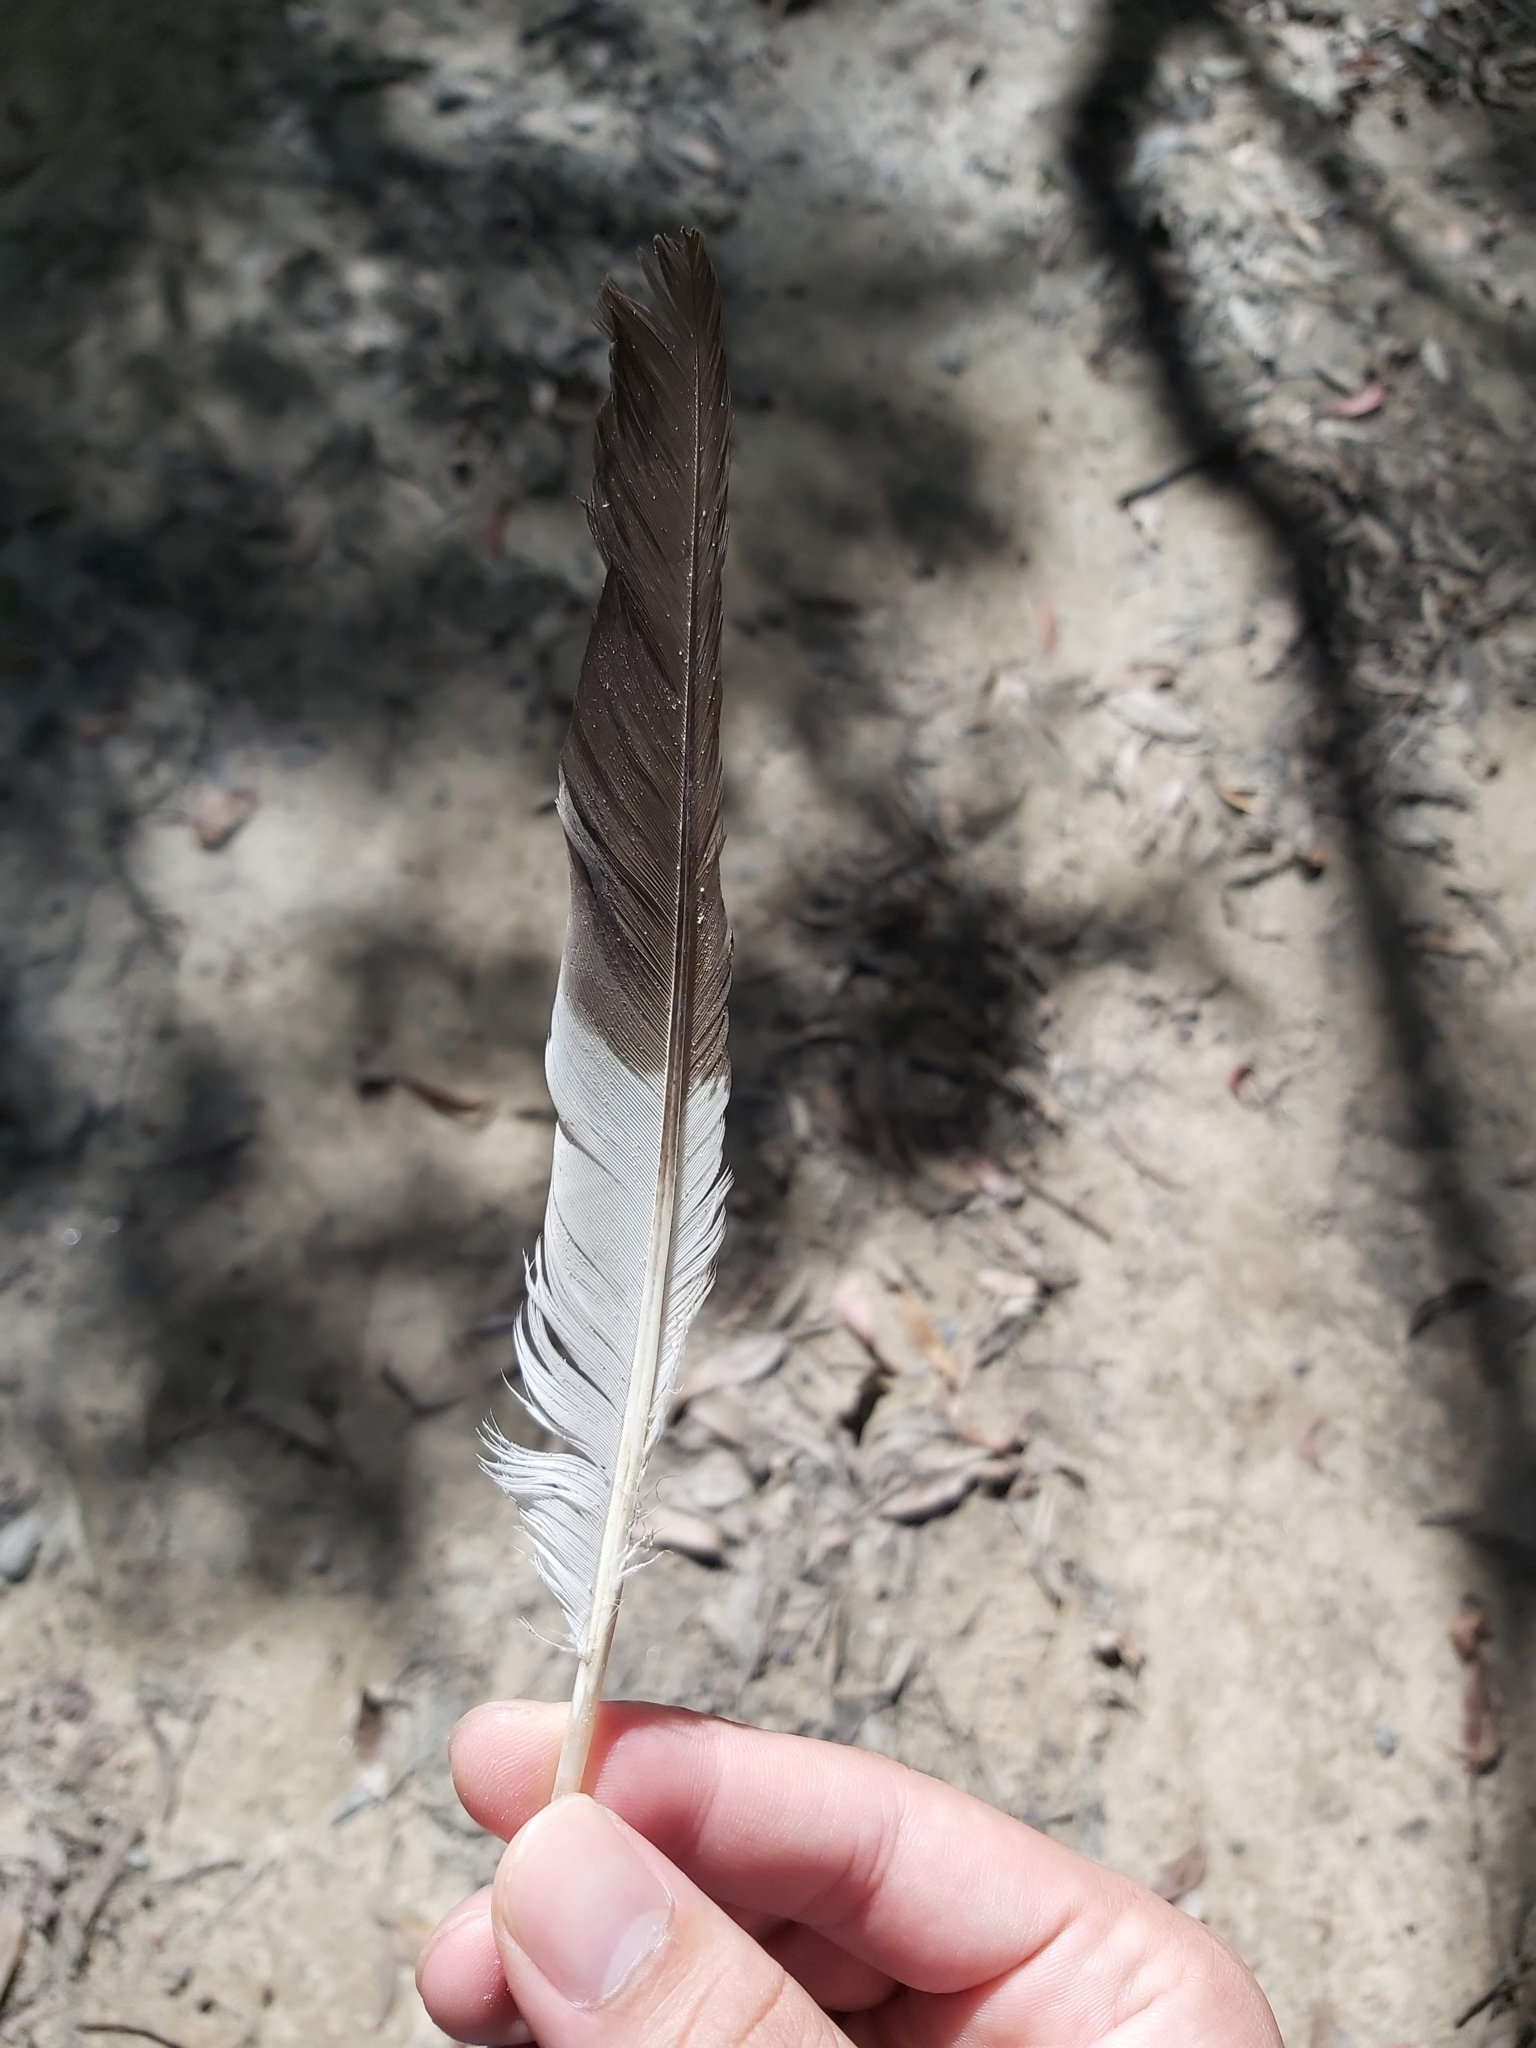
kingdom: Animalia
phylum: Chordata
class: Aves
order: Coraciiformes
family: Alcedinidae
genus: Dacelo
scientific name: Dacelo novaeguineae
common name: Laughing kookaburra
